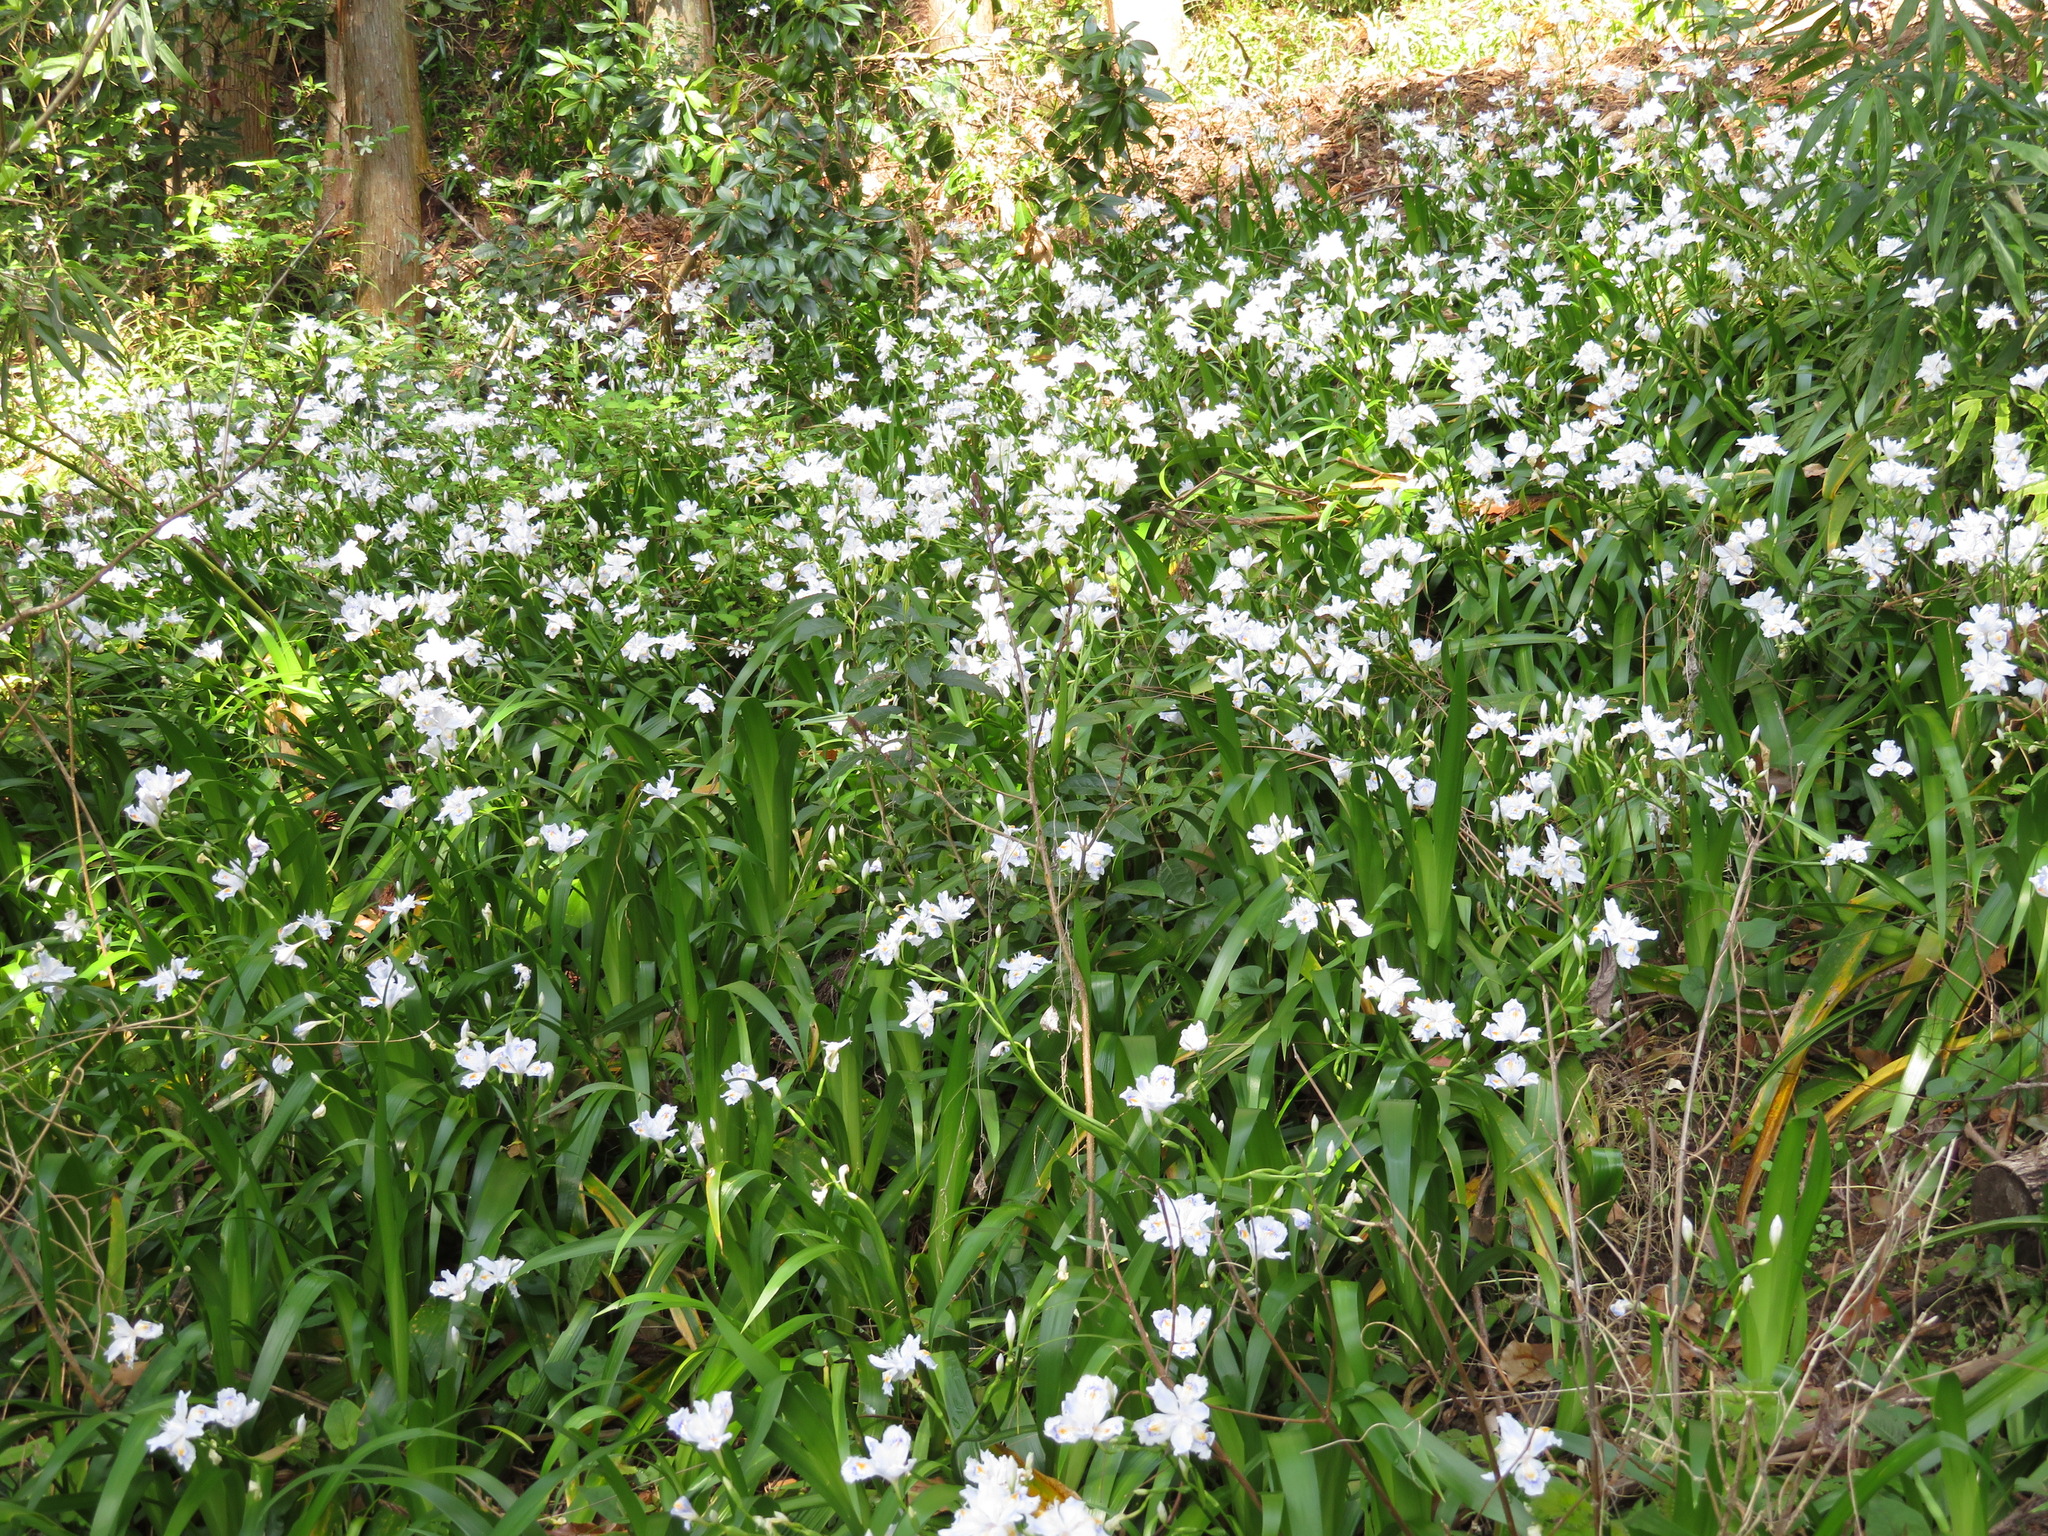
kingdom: Plantae
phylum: Tracheophyta
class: Liliopsida
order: Asparagales
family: Iridaceae
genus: Iris
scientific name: Iris japonica
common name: Butterfly-flower
